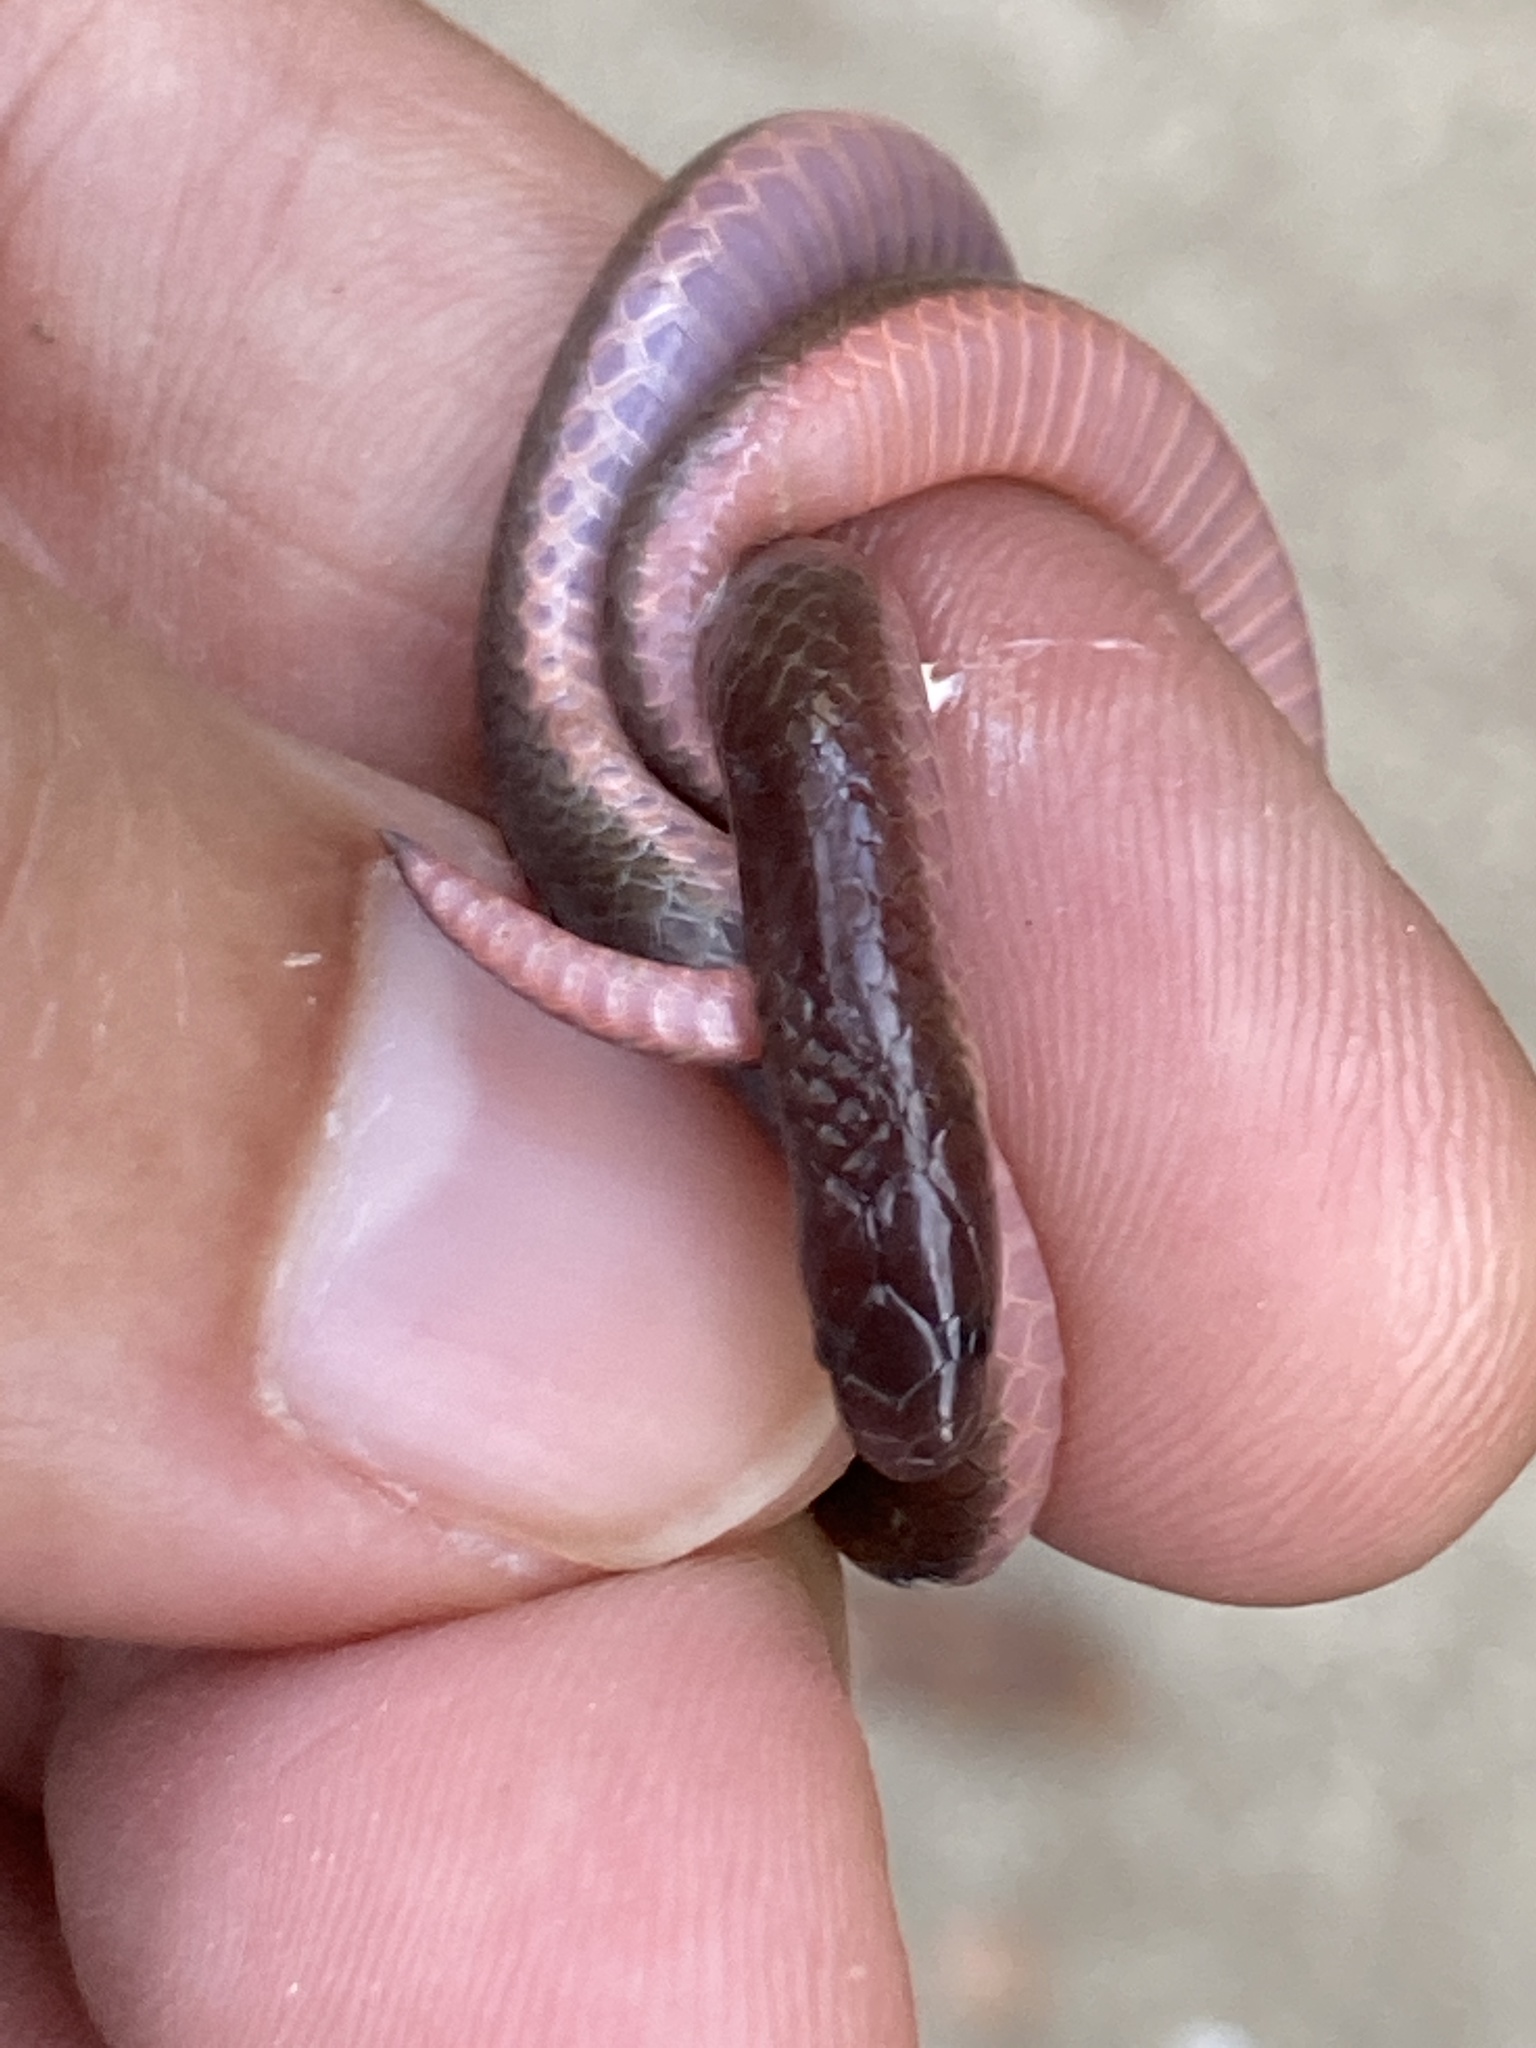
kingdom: Animalia
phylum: Chordata
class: Squamata
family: Colubridae
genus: Carphophis
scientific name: Carphophis amoenus
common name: Eastern worm snake
